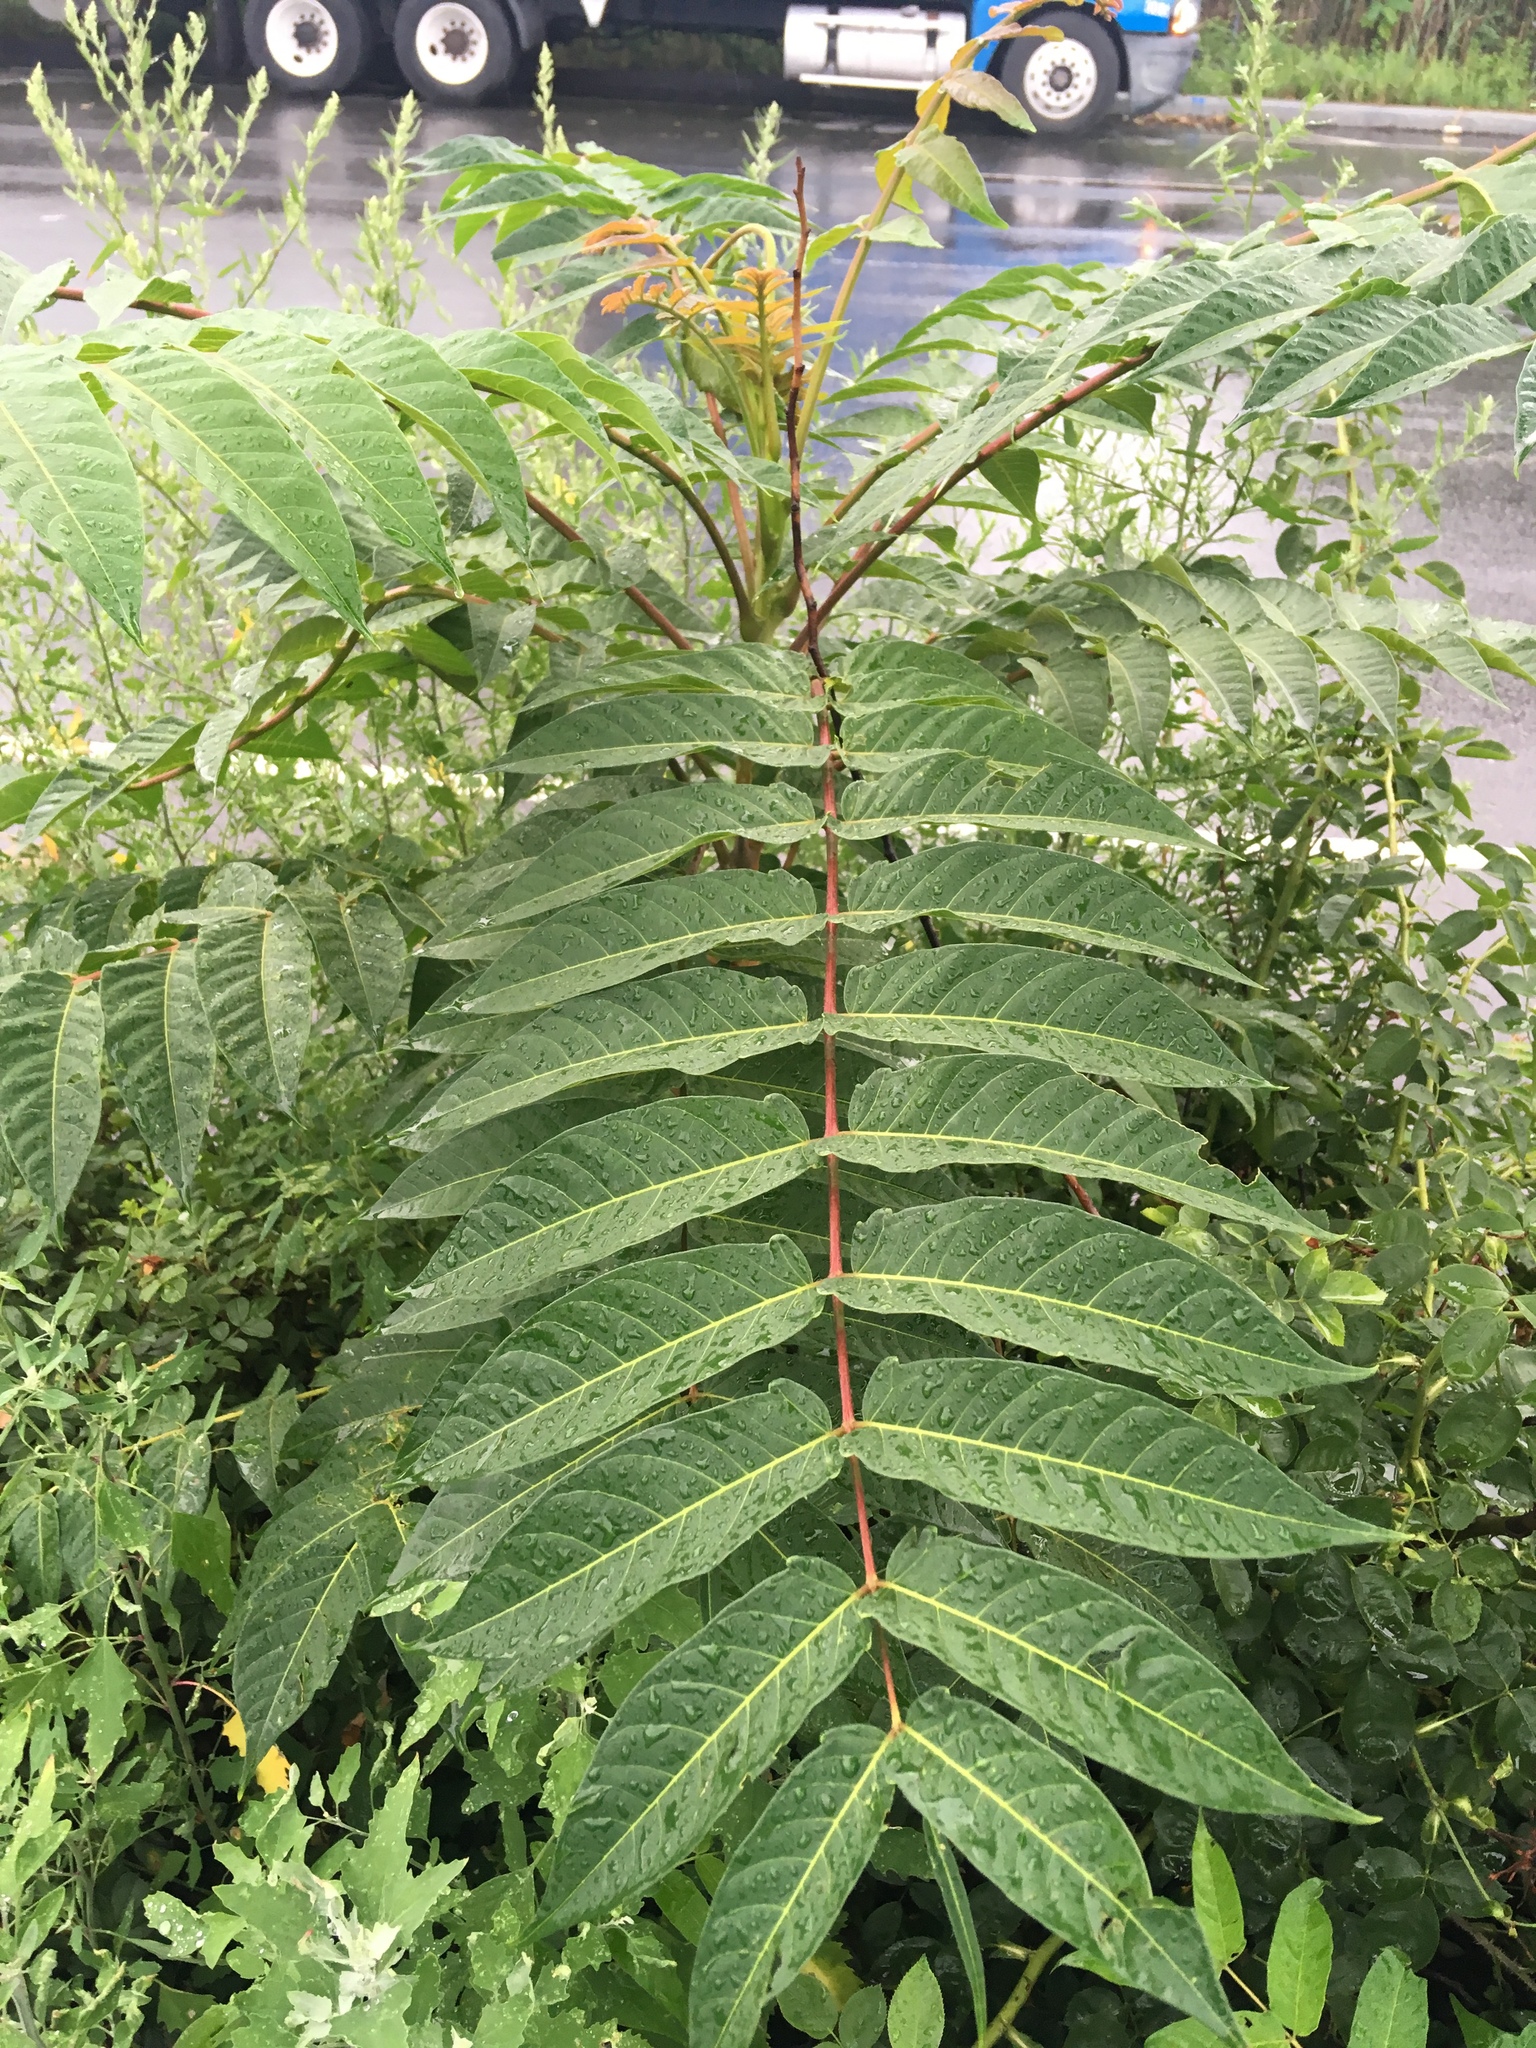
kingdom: Plantae
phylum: Tracheophyta
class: Magnoliopsida
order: Sapindales
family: Simaroubaceae
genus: Ailanthus
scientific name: Ailanthus altissima
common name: Tree-of-heaven
